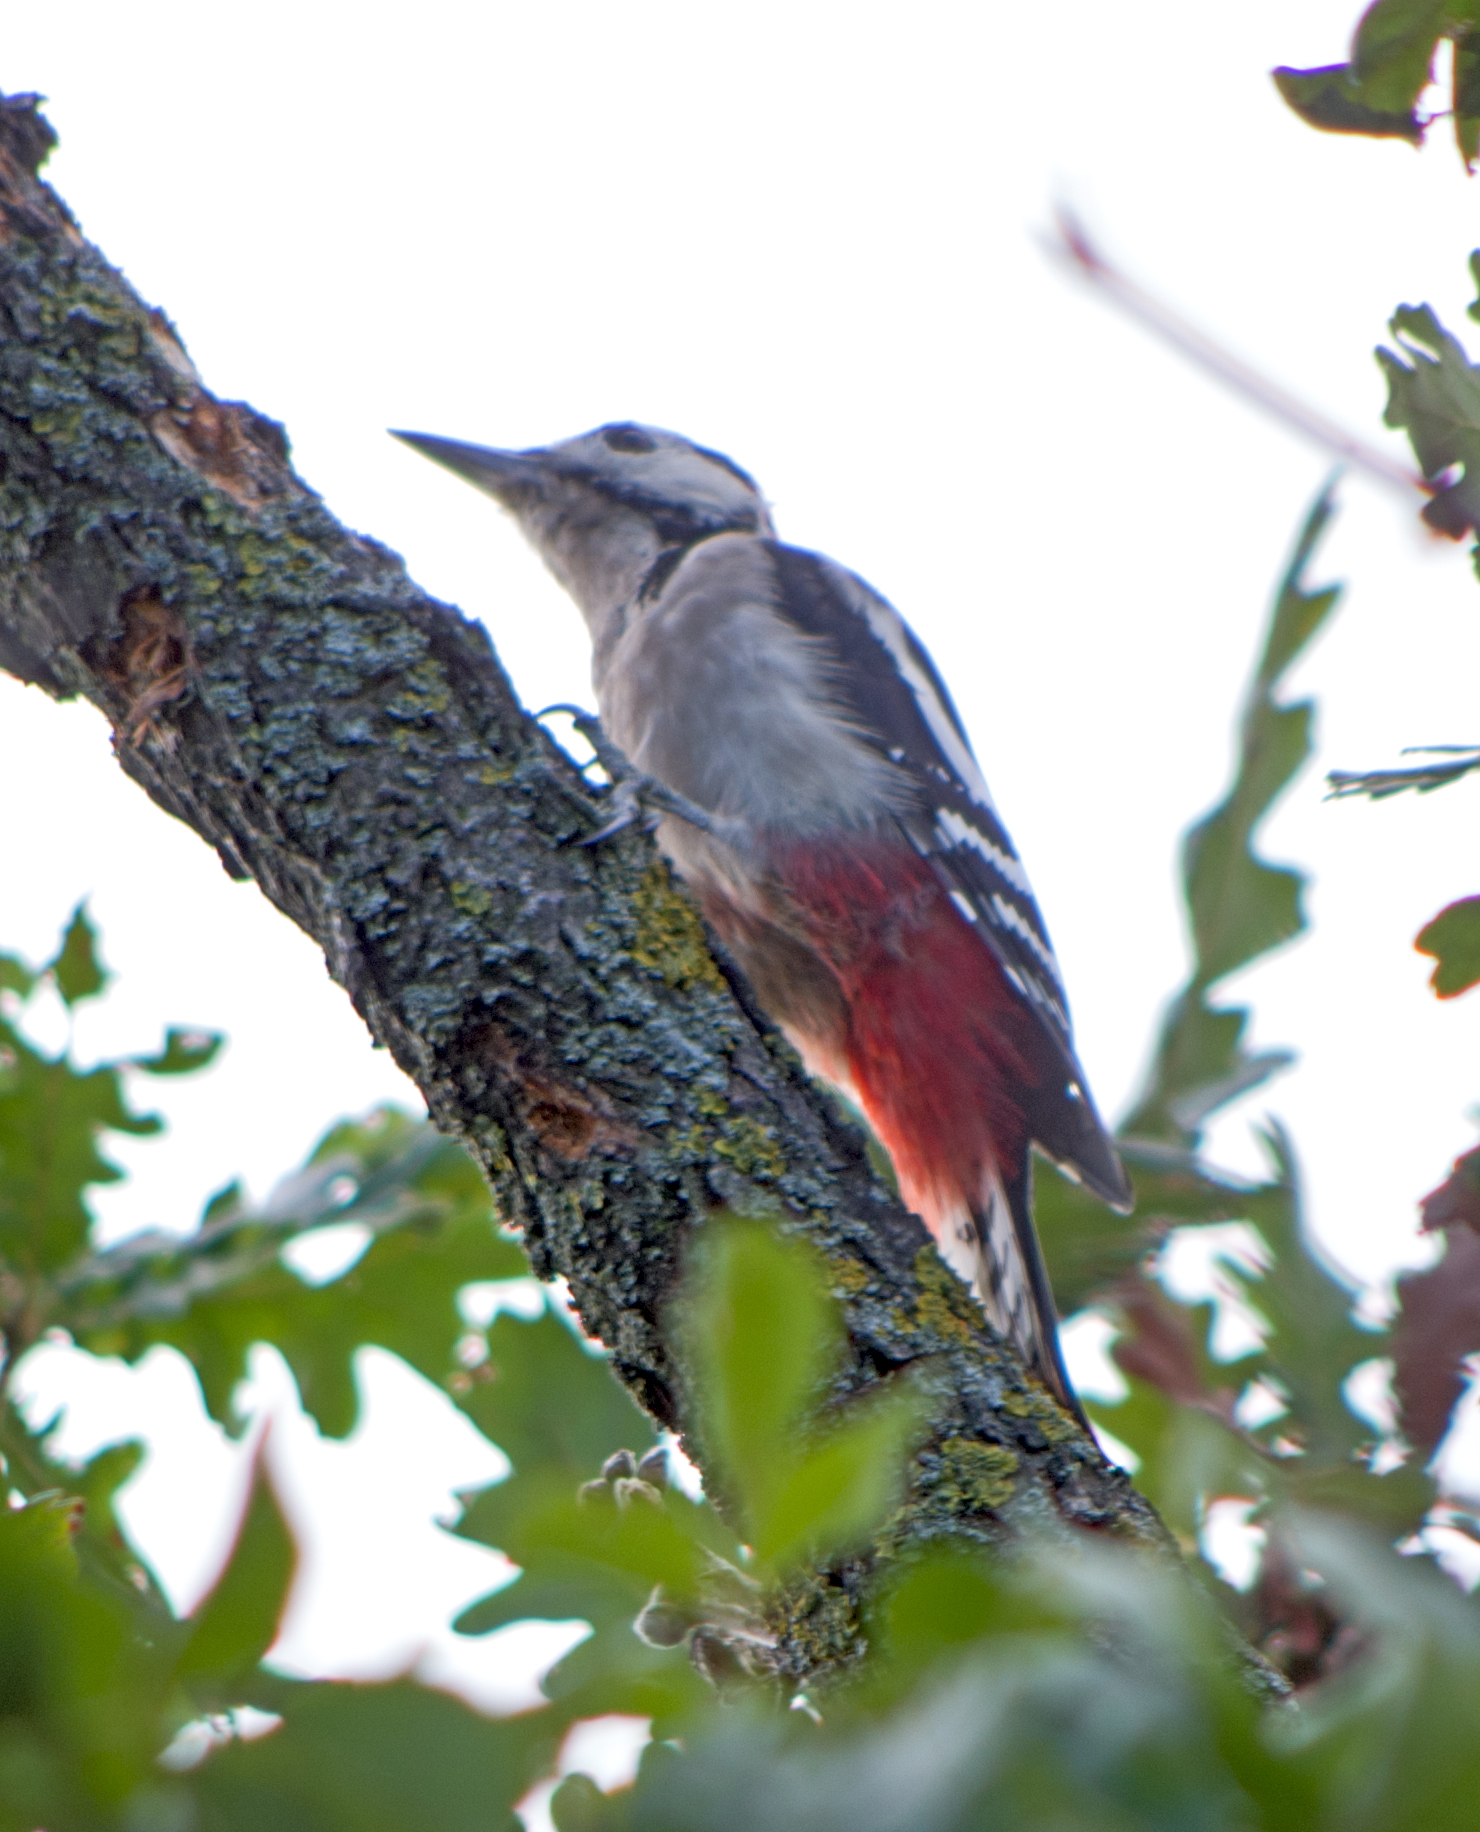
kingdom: Animalia
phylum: Chordata
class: Aves
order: Piciformes
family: Picidae
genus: Dendrocopos
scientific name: Dendrocopos syriacus
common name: Syrian woodpecker
